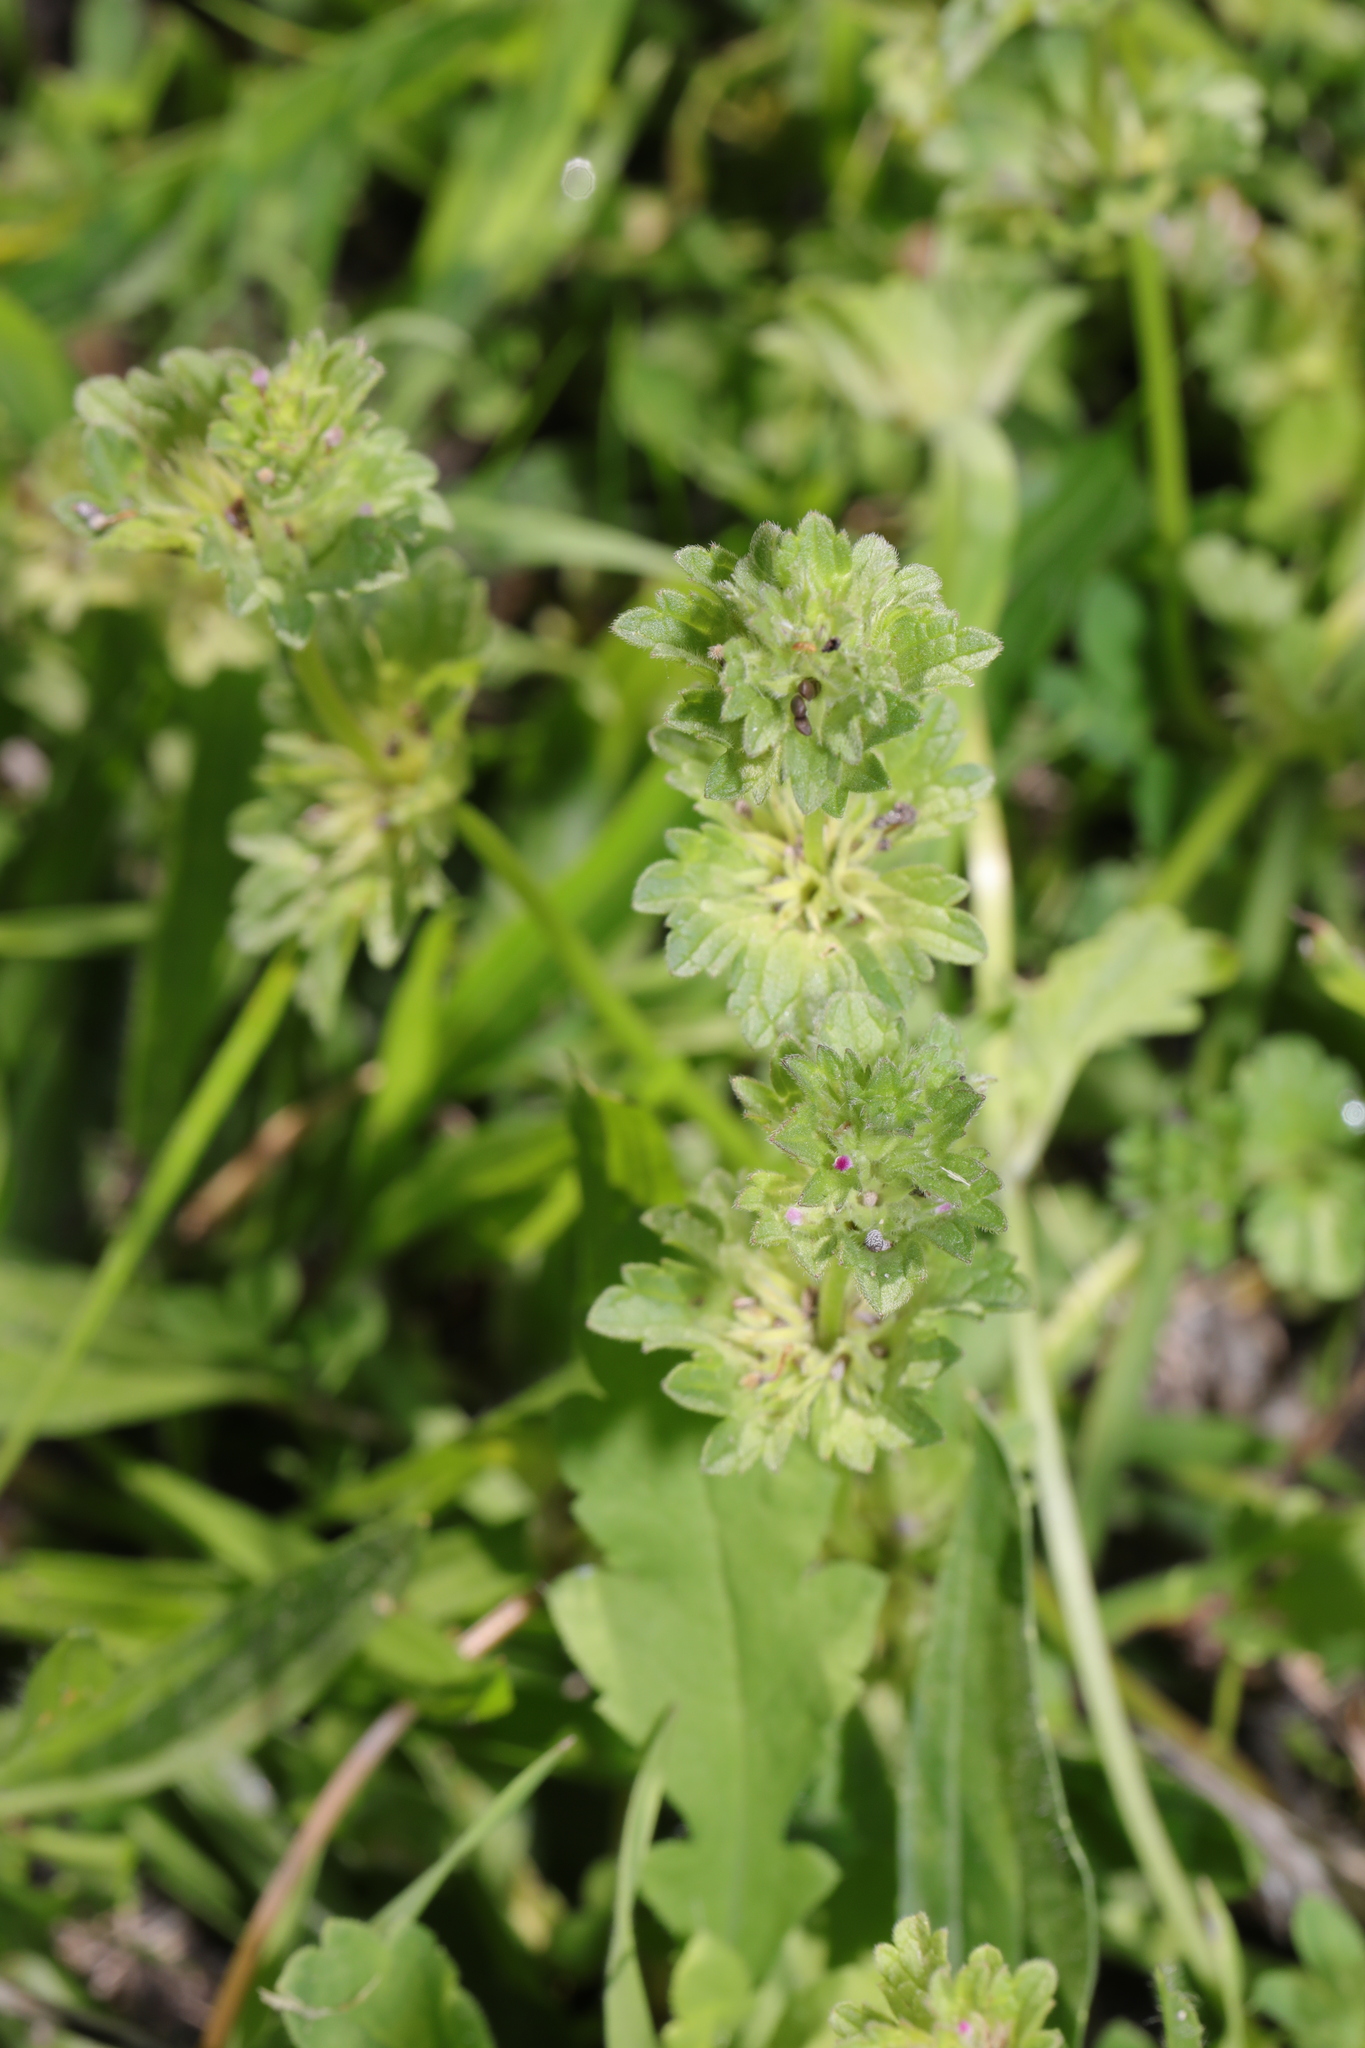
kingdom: Plantae
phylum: Tracheophyta
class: Magnoliopsida
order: Lamiales
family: Lamiaceae
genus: Lamium
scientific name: Lamium amplexicaule
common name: Henbit dead-nettle
